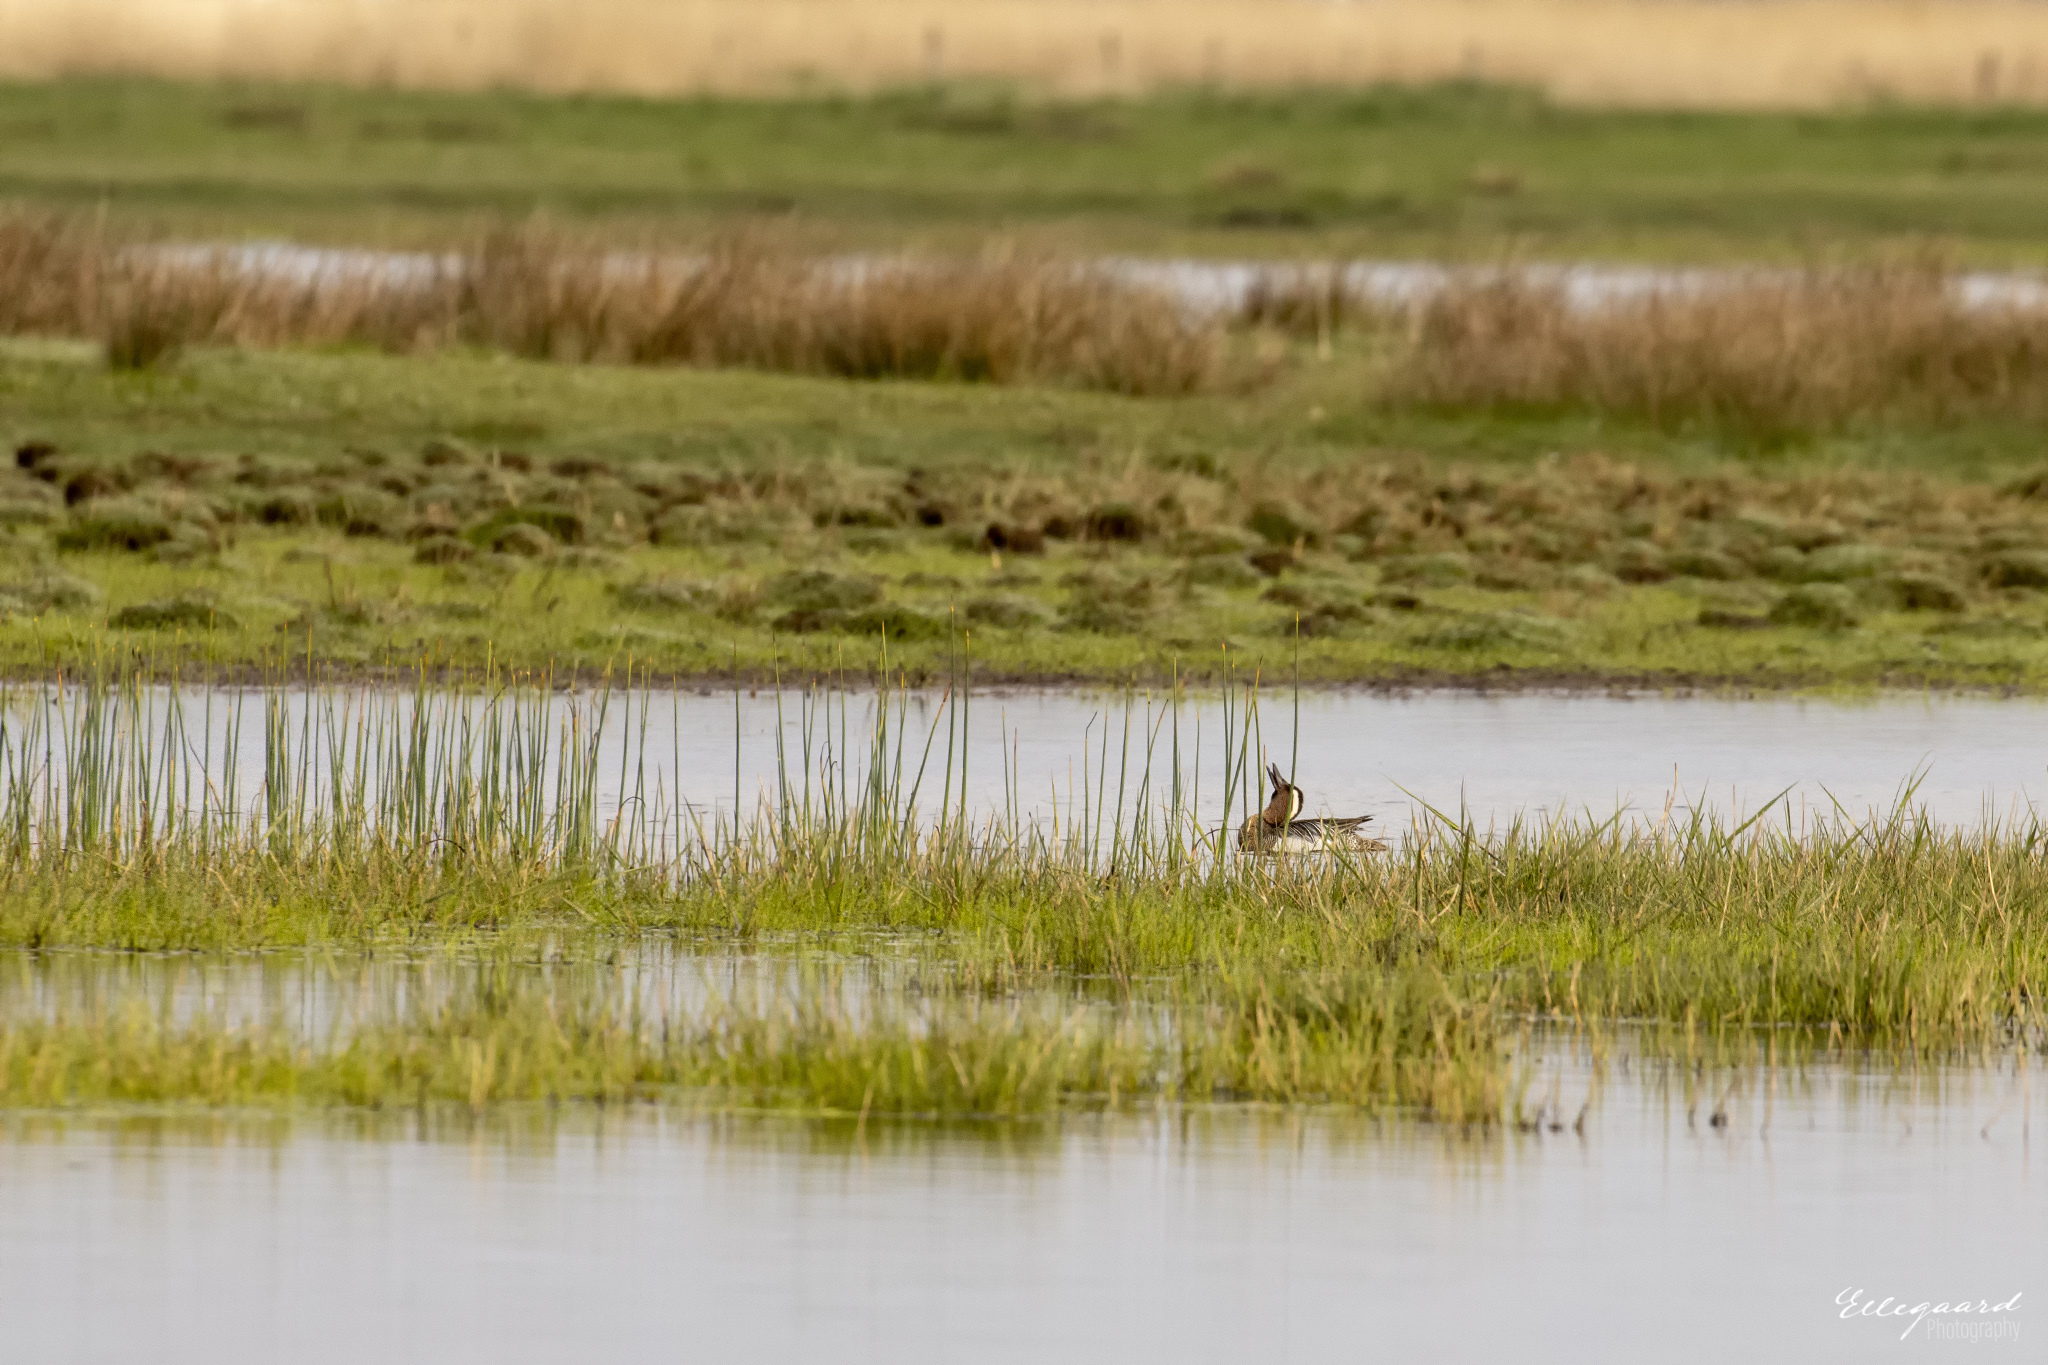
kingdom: Animalia
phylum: Chordata
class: Aves
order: Anseriformes
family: Anatidae
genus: Spatula
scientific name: Spatula querquedula
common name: Garganey
